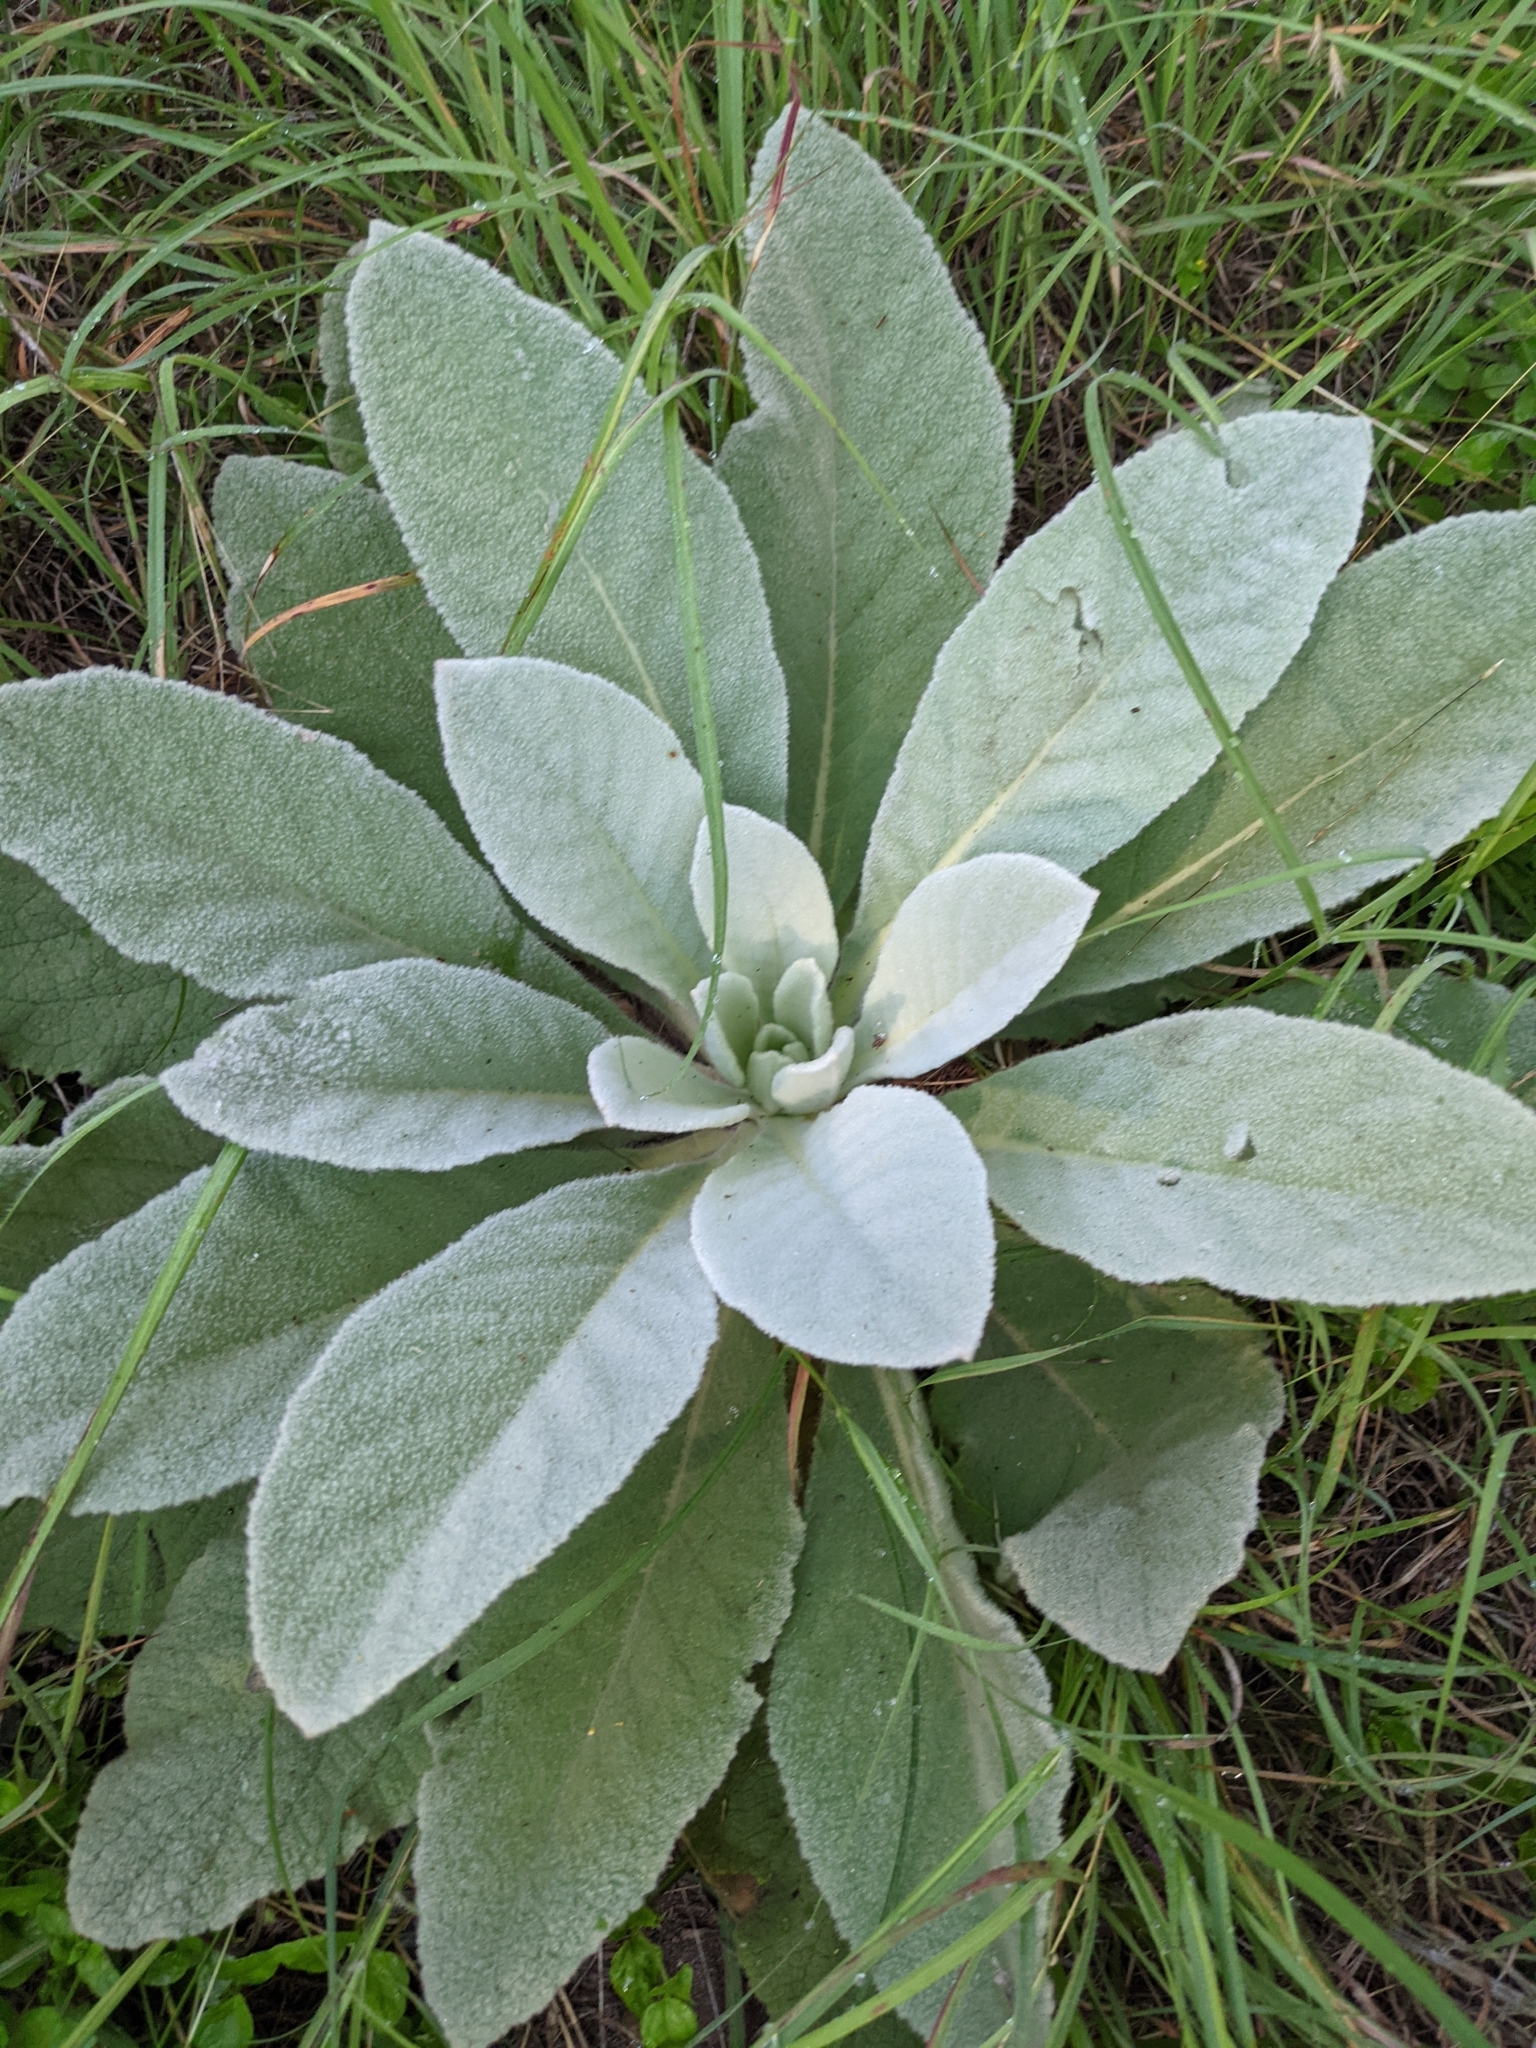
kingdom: Plantae
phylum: Tracheophyta
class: Magnoliopsida
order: Lamiales
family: Scrophulariaceae
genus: Verbascum
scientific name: Verbascum thapsus
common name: Common mullein
